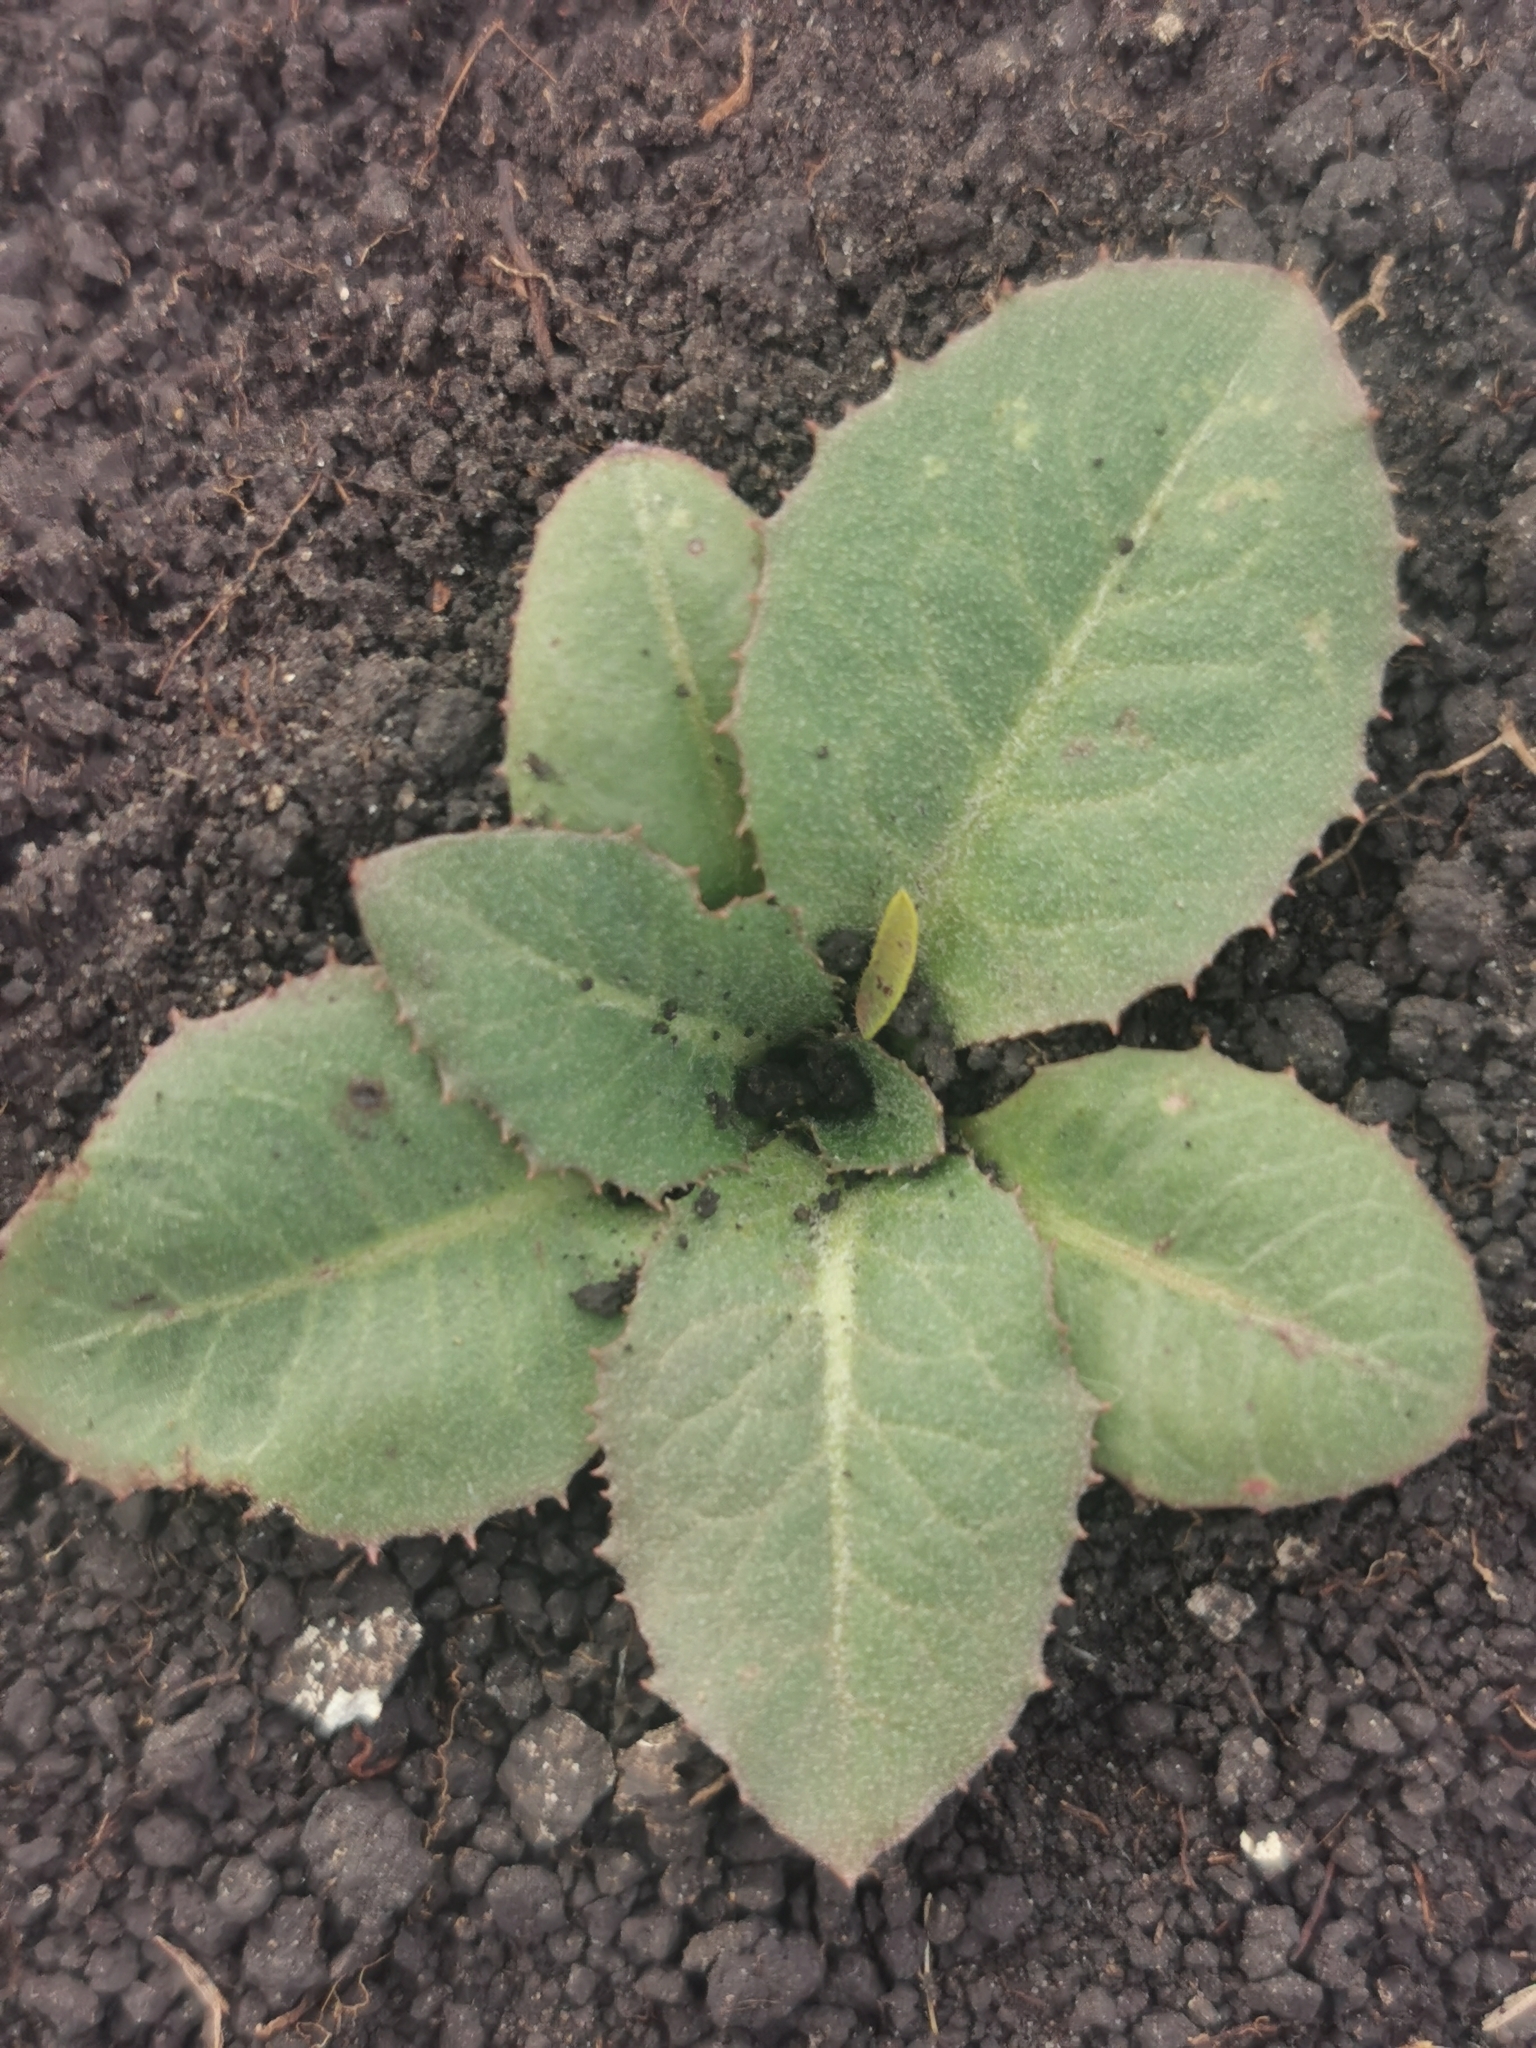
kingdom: Plantae
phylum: Tracheophyta
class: Magnoliopsida
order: Asterales
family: Asteraceae
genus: Taraxacum
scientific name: Taraxacum serotinum
